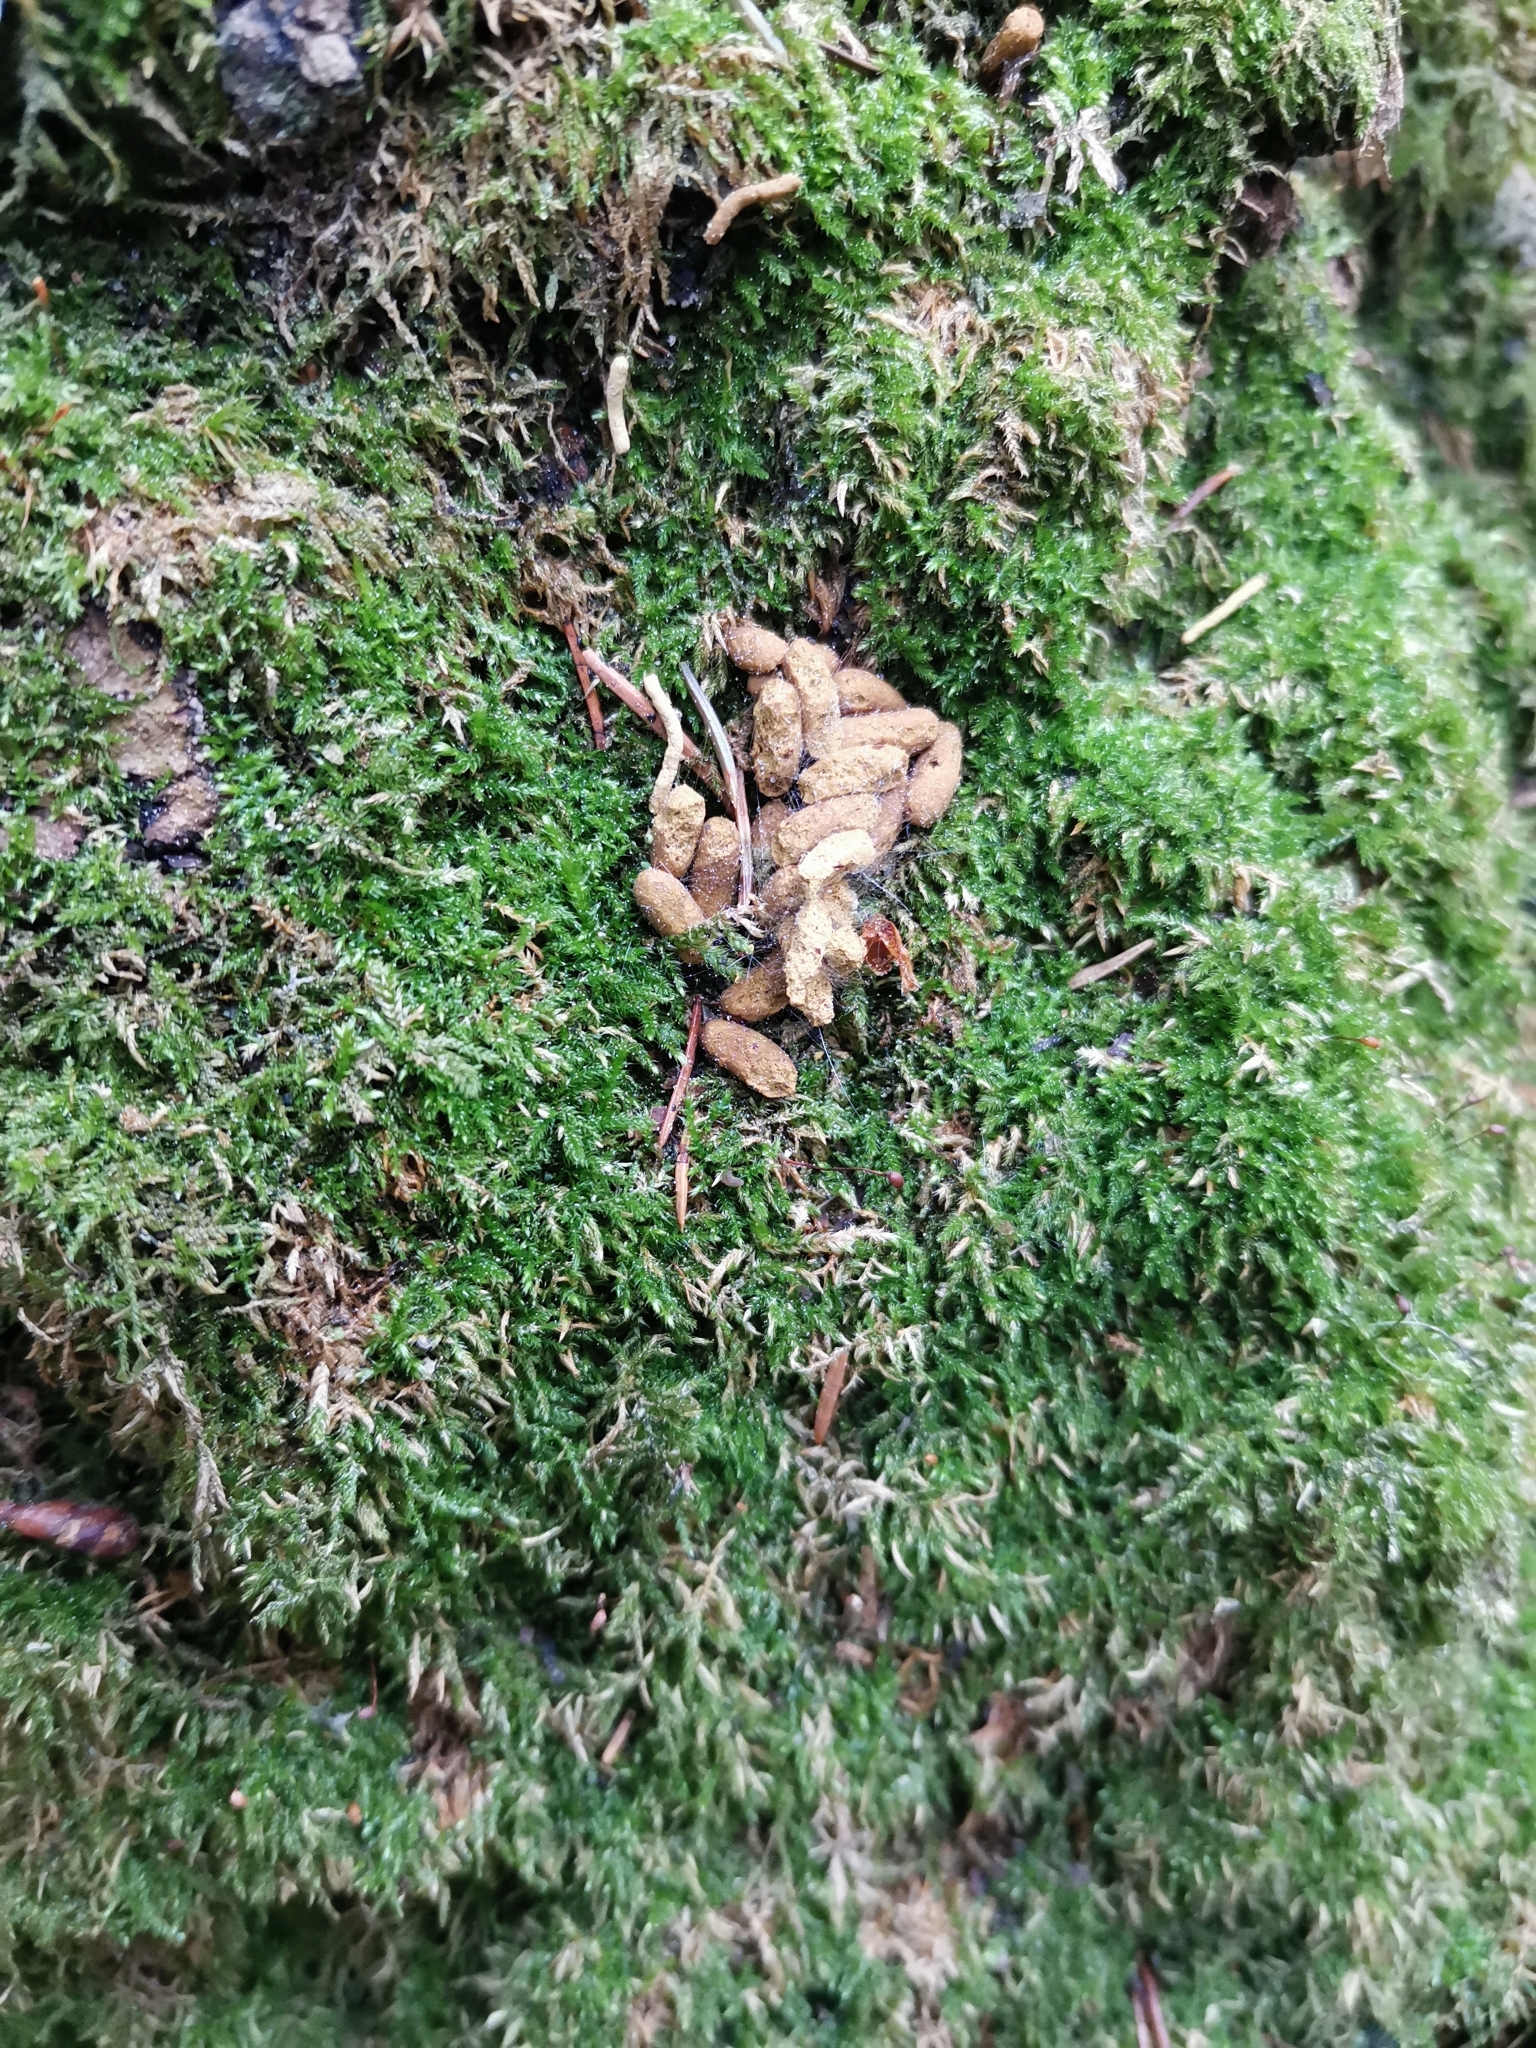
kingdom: Animalia
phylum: Chordata
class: Mammalia
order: Rodentia
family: Sciuridae
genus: Pteromys
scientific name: Pteromys volans
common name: Siberian flying squirrel
